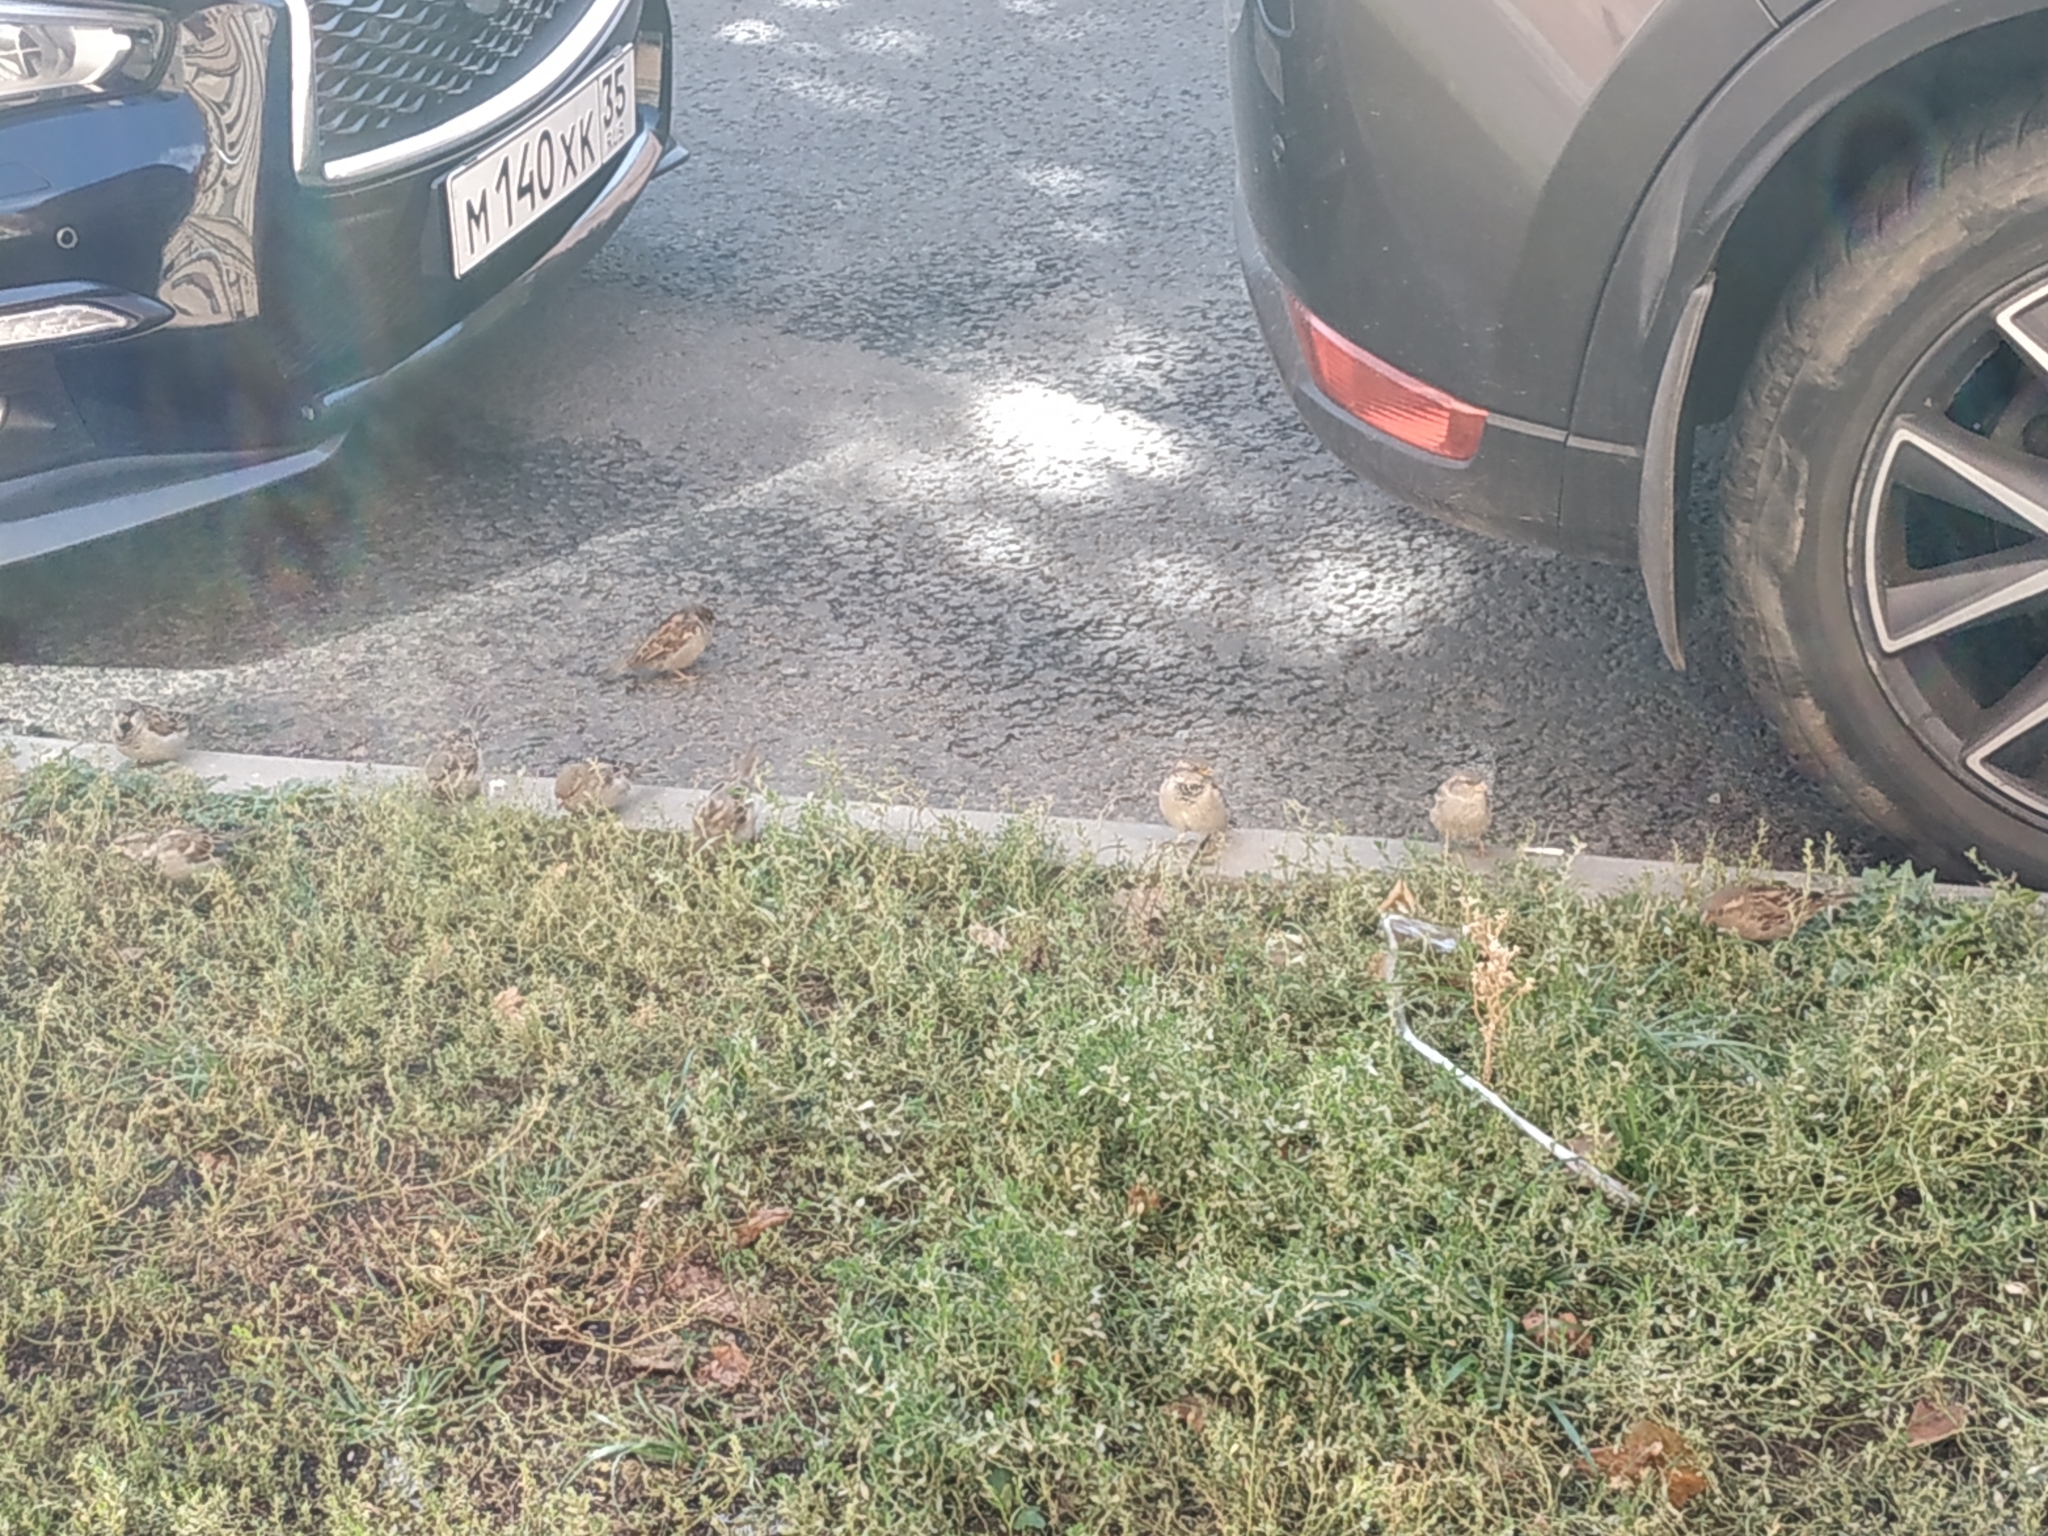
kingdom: Animalia
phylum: Chordata
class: Aves
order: Passeriformes
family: Passeridae
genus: Passer
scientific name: Passer domesticus
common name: House sparrow
